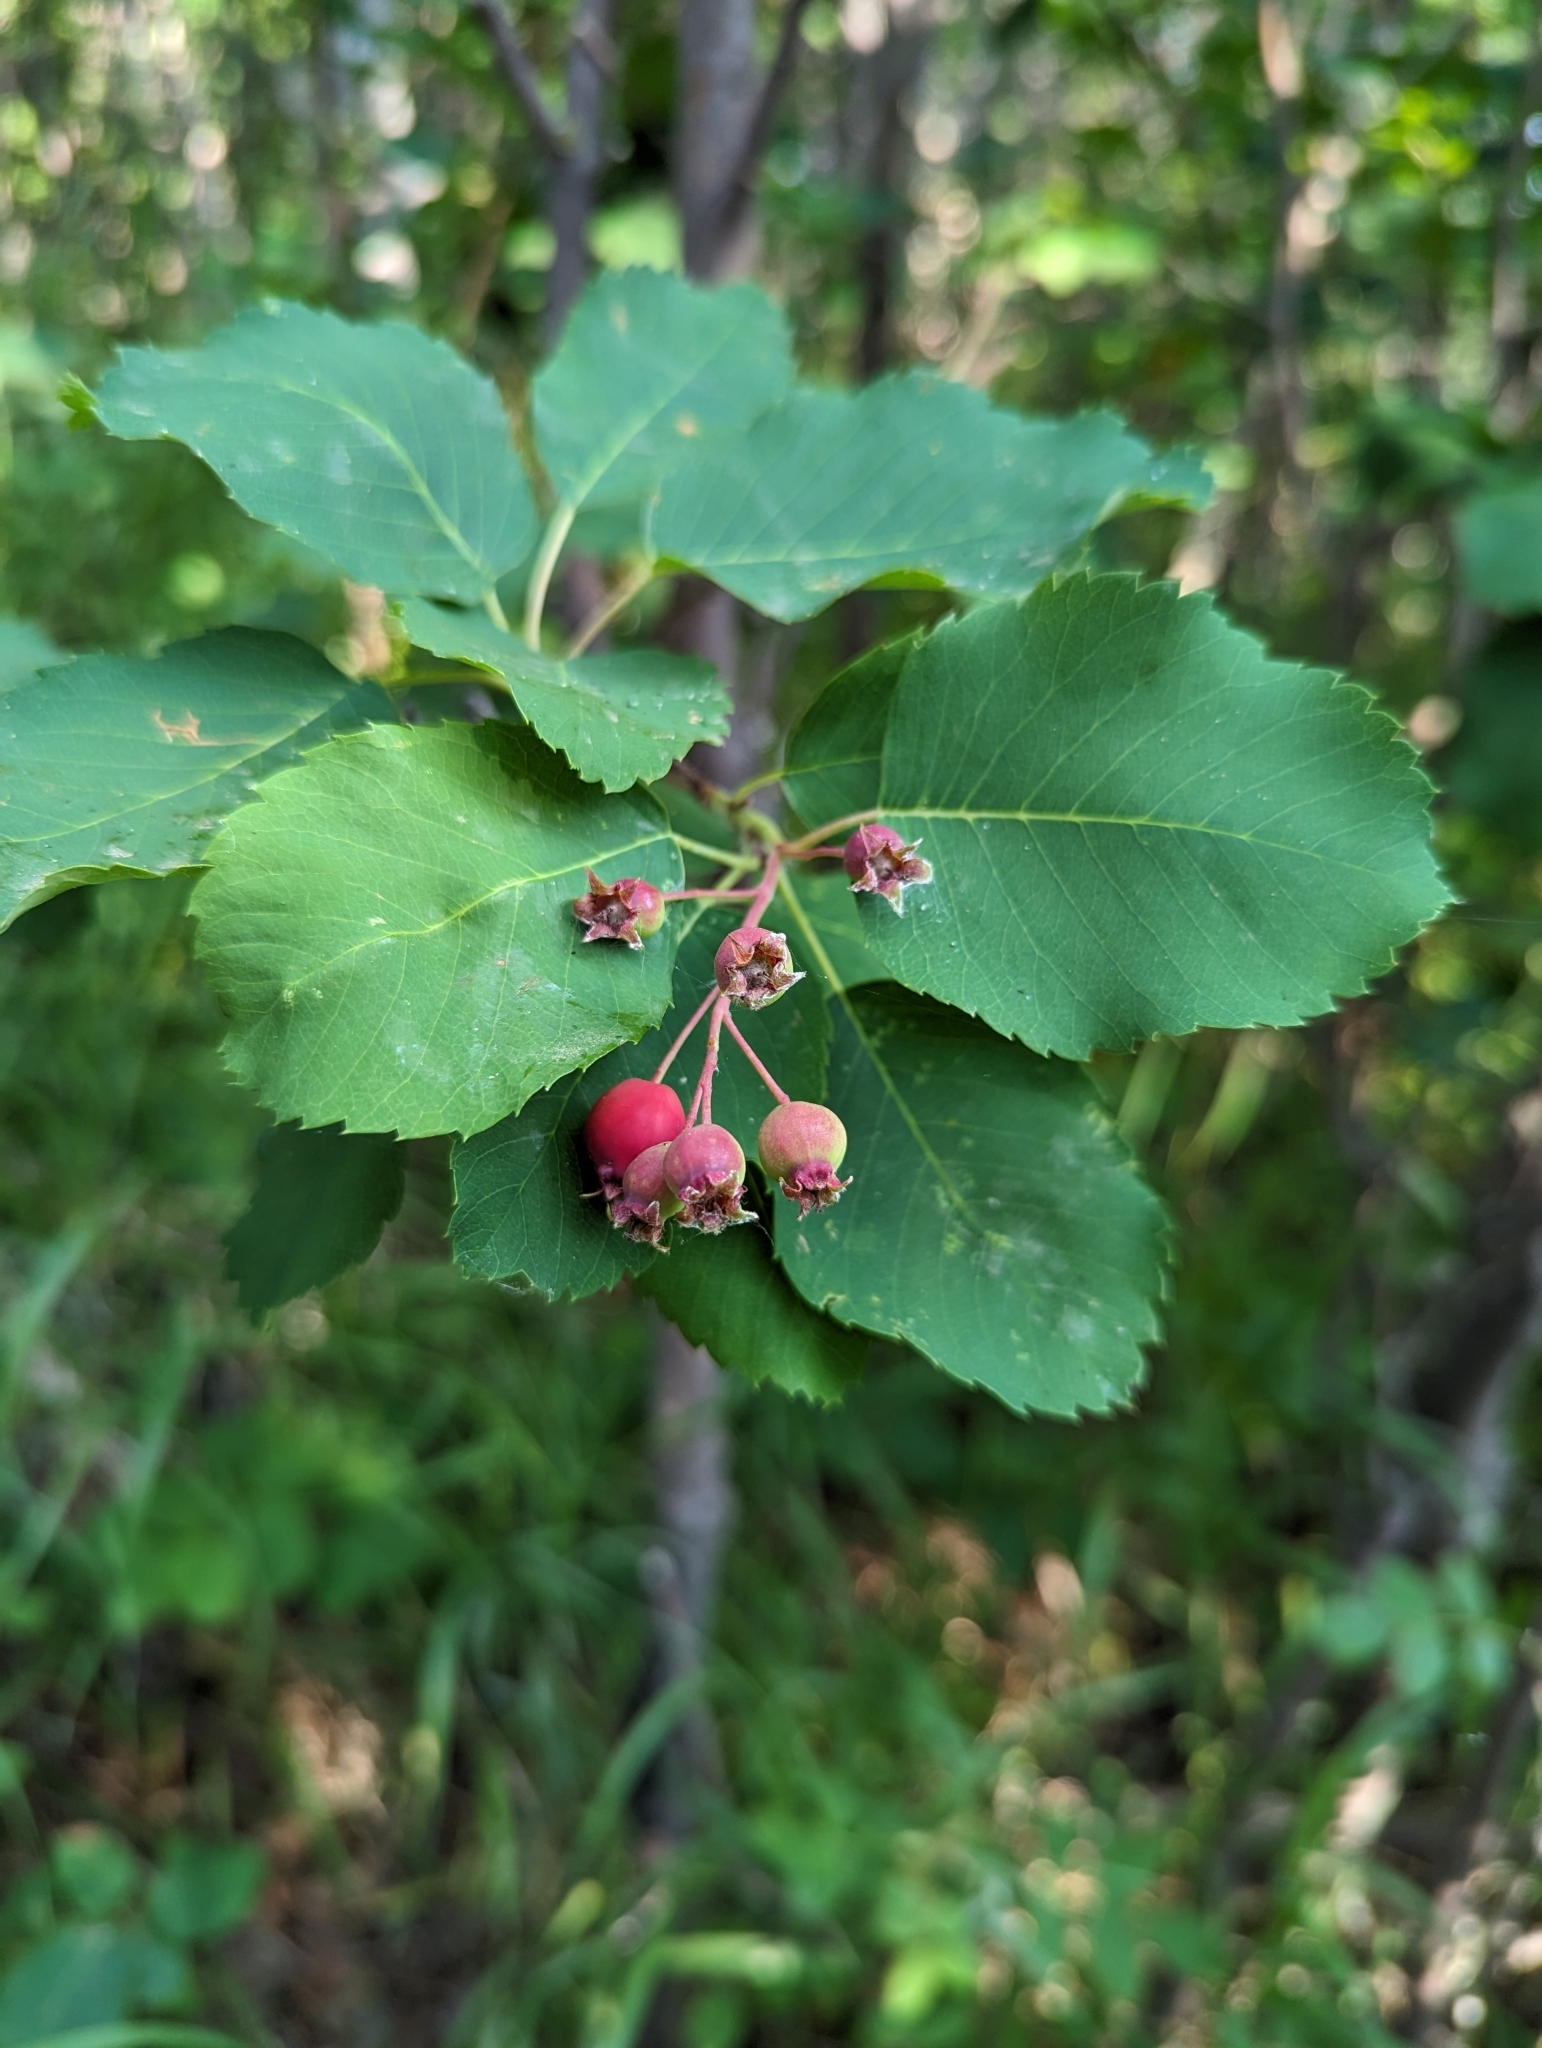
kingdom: Plantae
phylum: Tracheophyta
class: Magnoliopsida
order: Rosales
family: Rosaceae
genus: Amelanchier
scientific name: Amelanchier alnifolia
